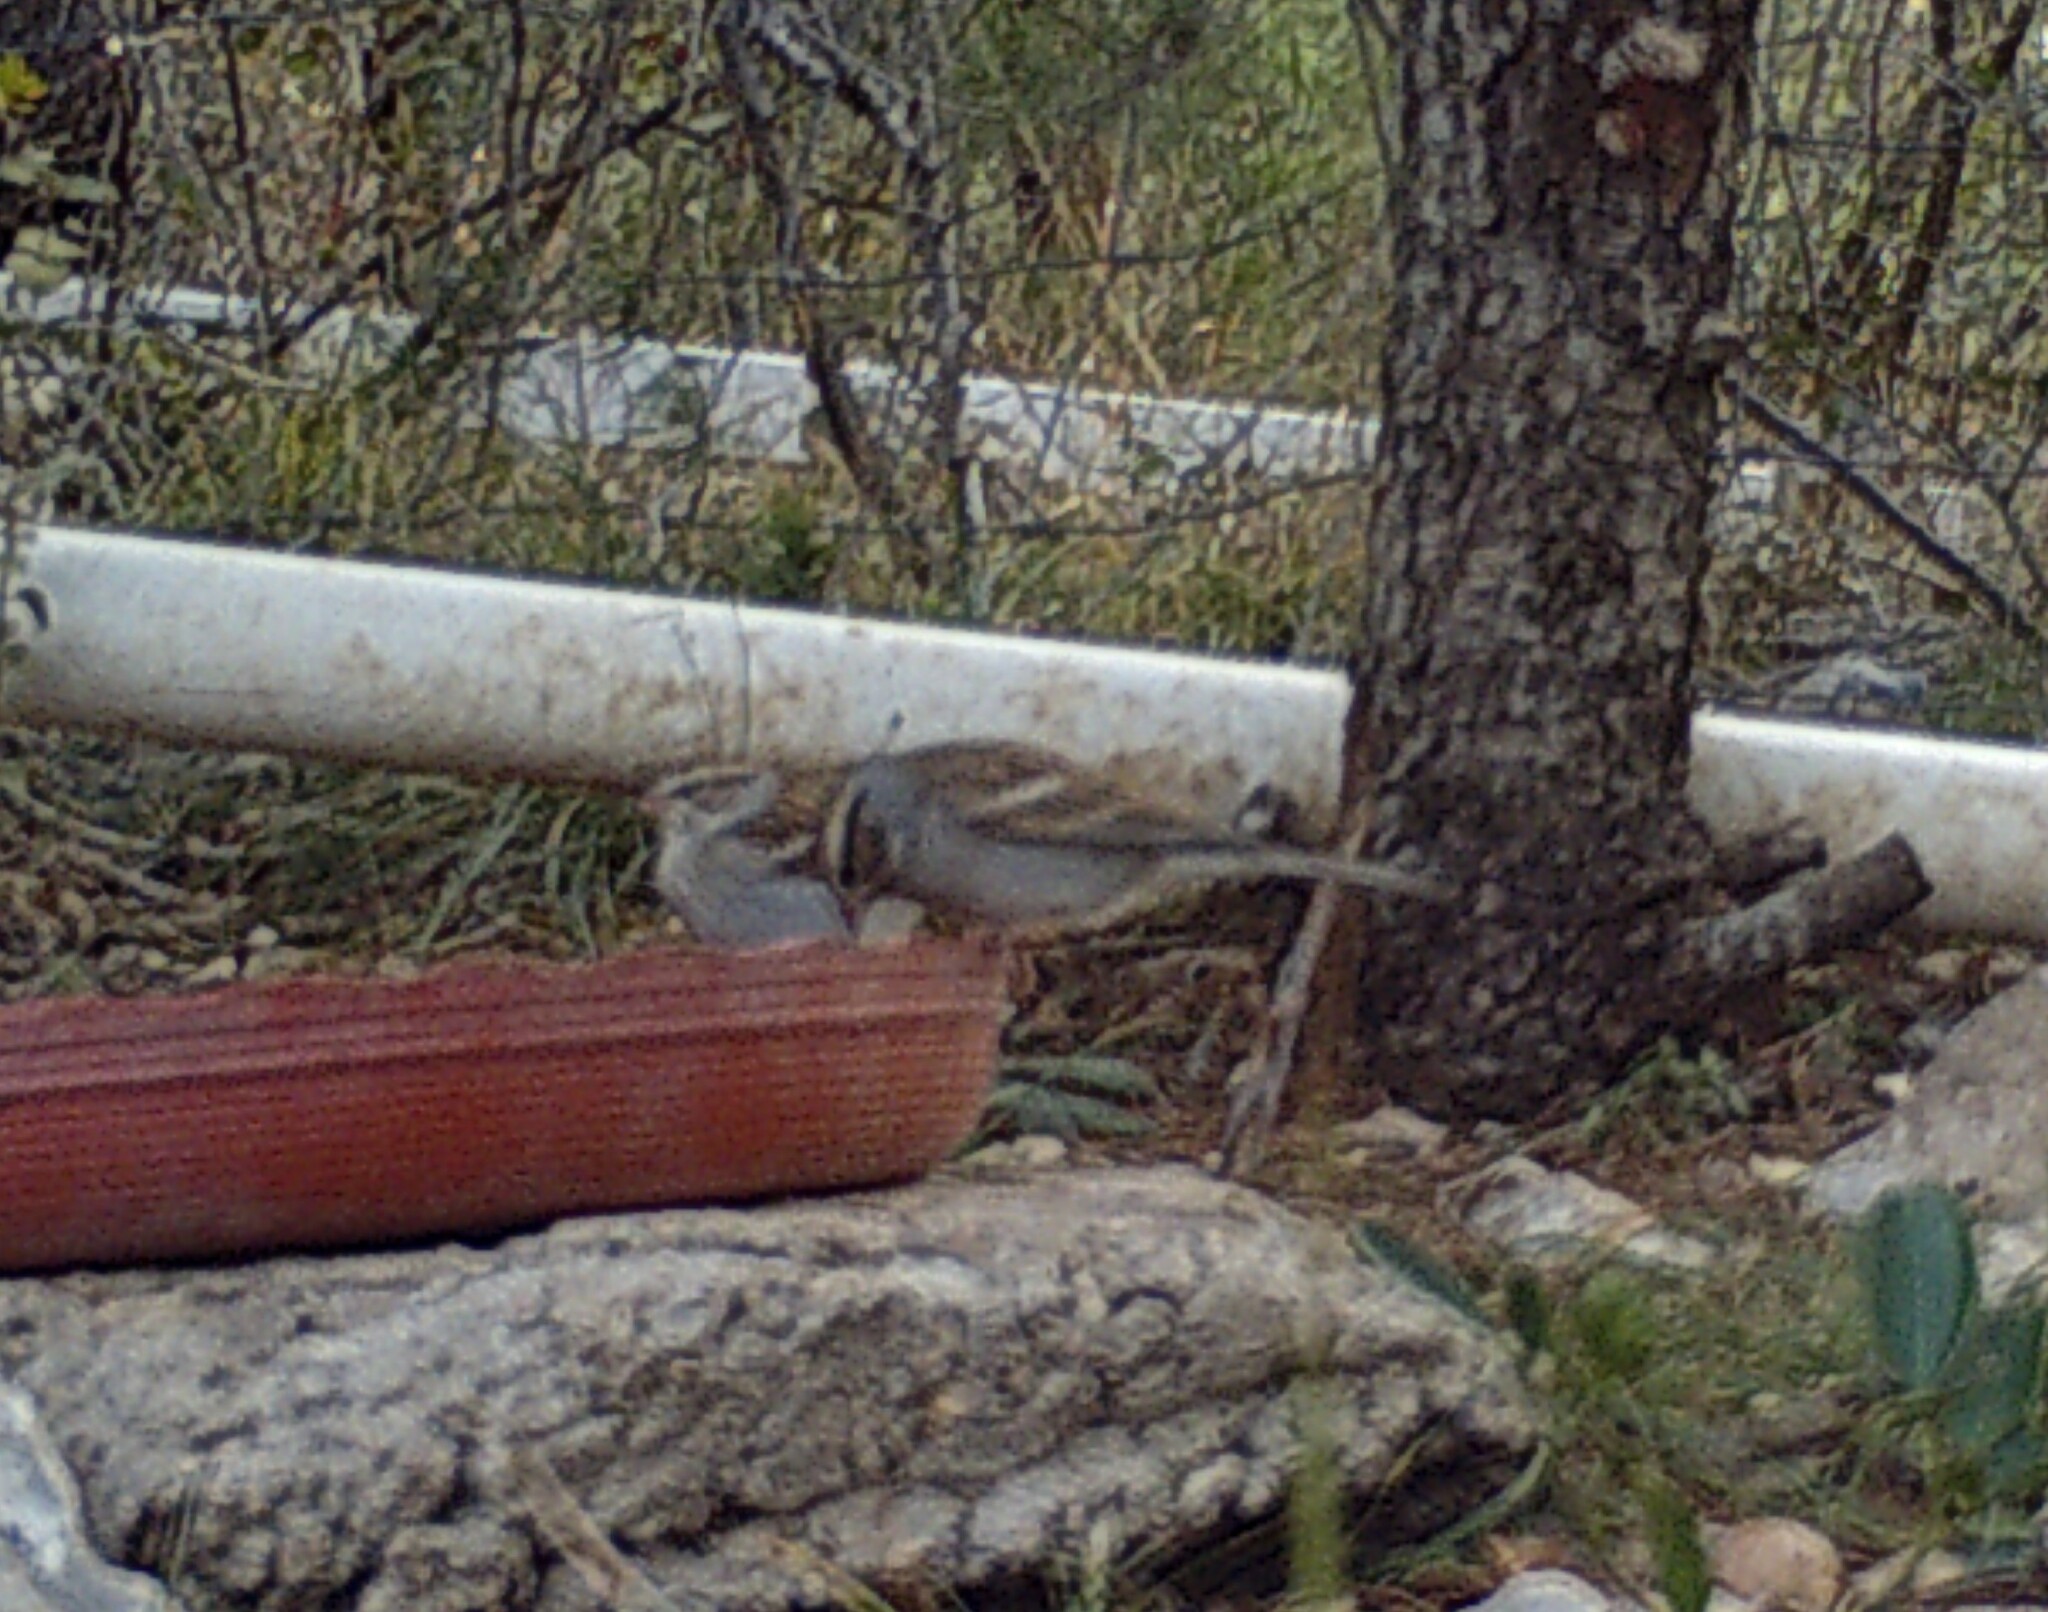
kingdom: Animalia
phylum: Chordata
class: Aves
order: Passeriformes
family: Passerellidae
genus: Spizella
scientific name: Spizella passerina
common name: Chipping sparrow
